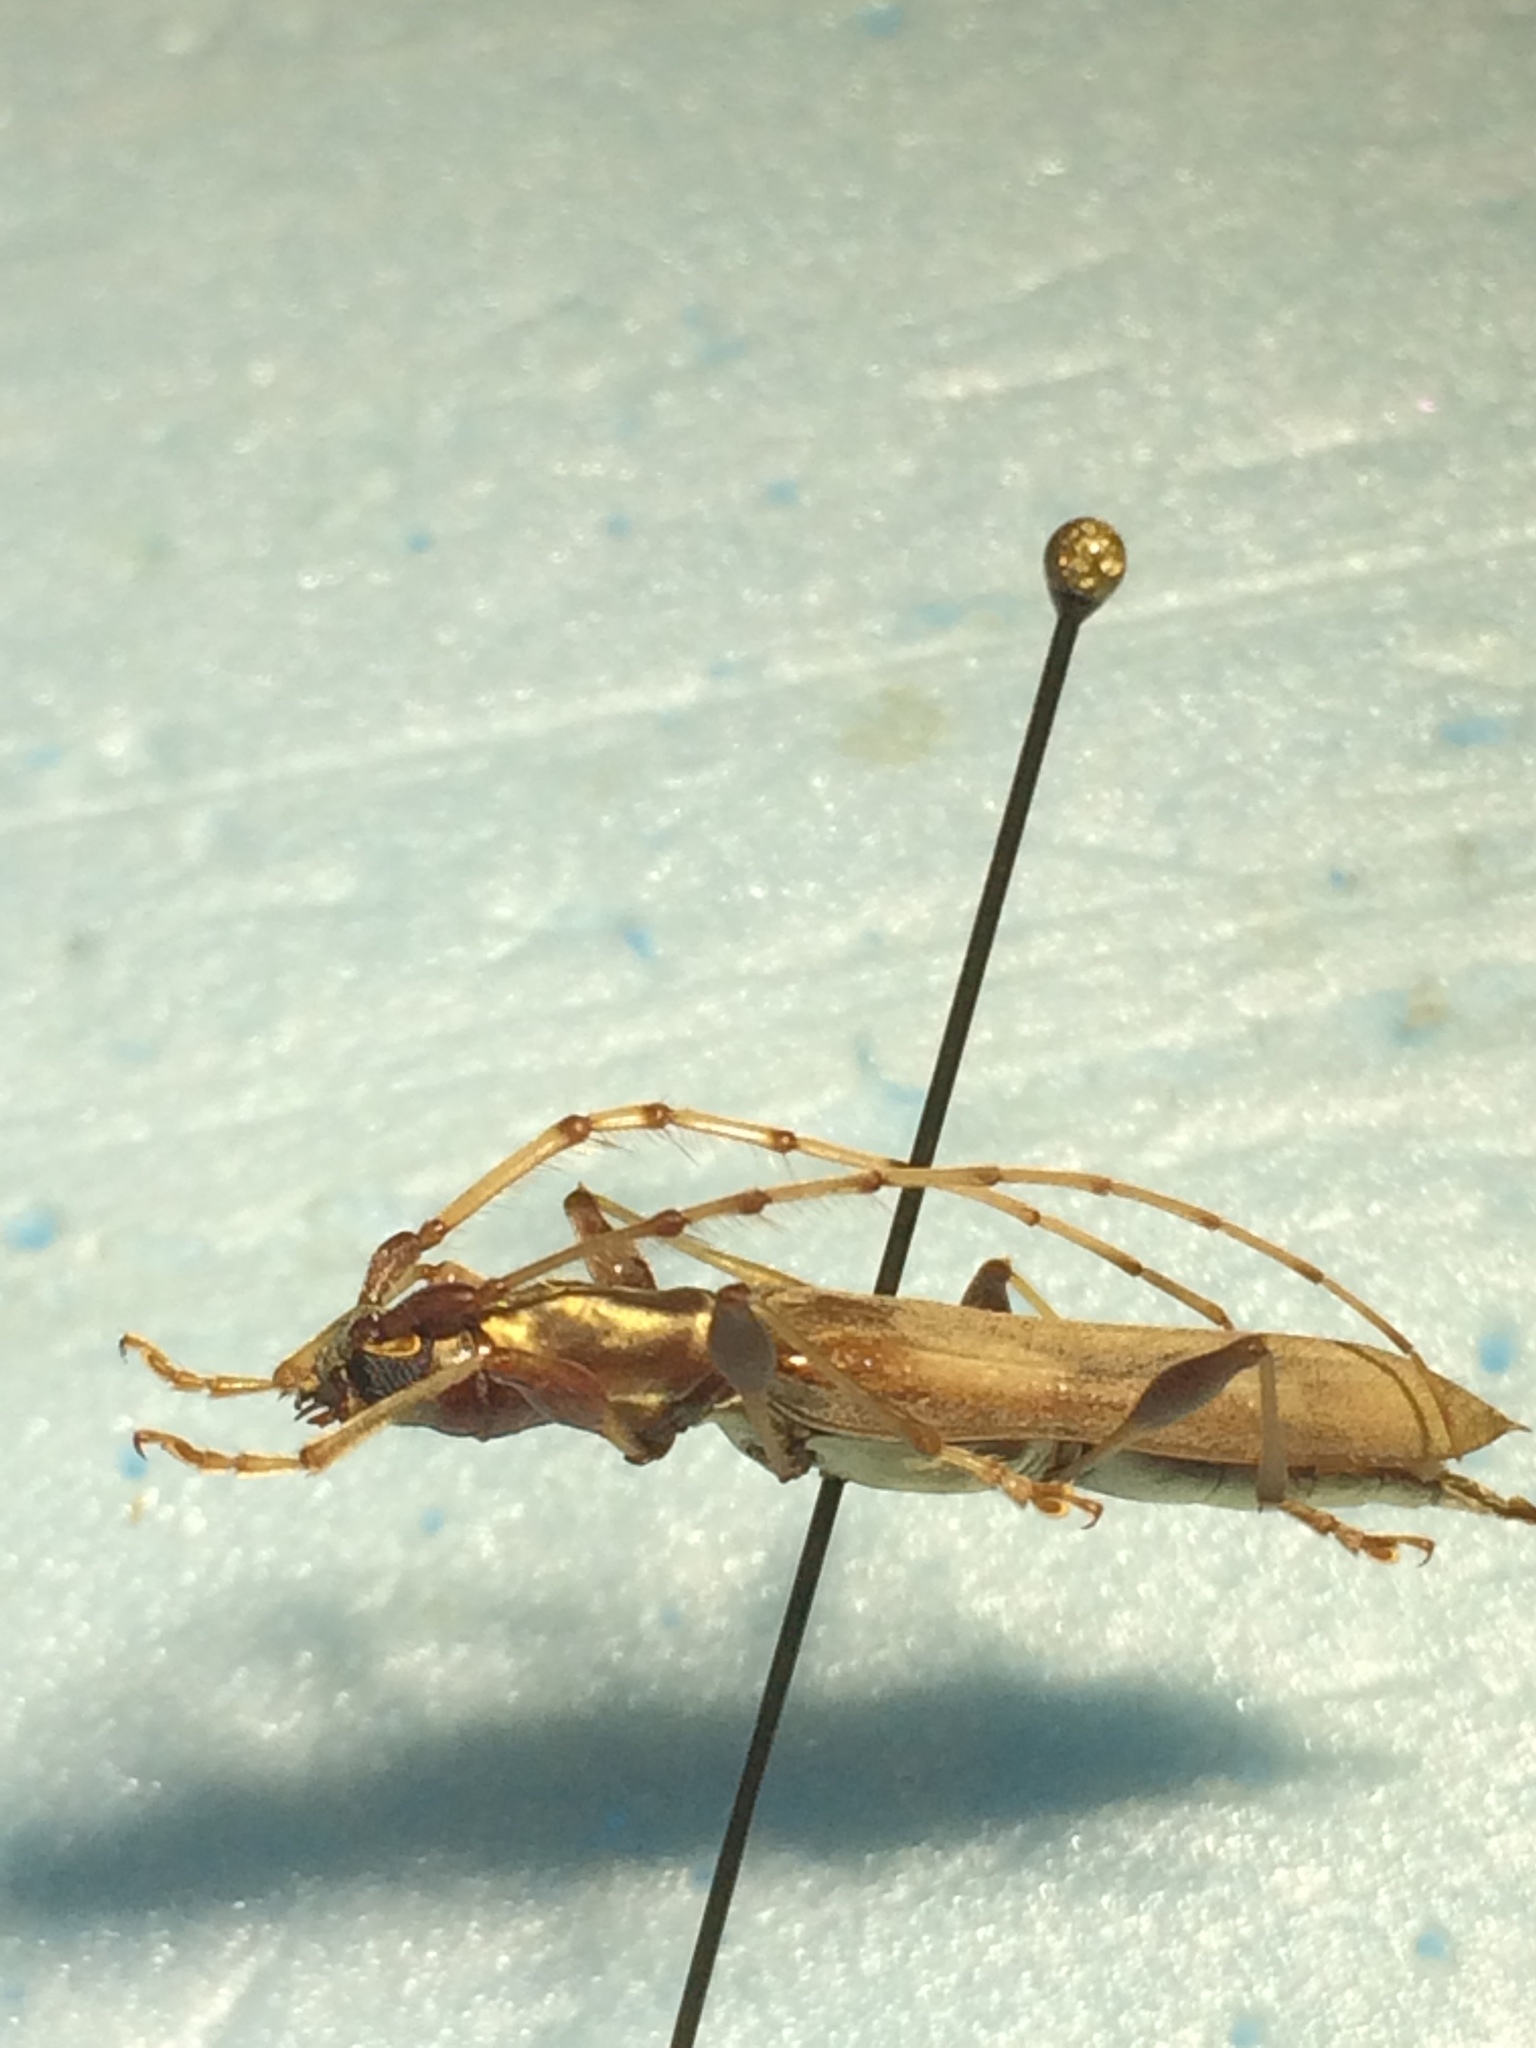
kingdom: Animalia
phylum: Arthropoda
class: Insecta
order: Coleoptera
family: Cerambycidae
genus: Neocompsa
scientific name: Neocompsa sericans
